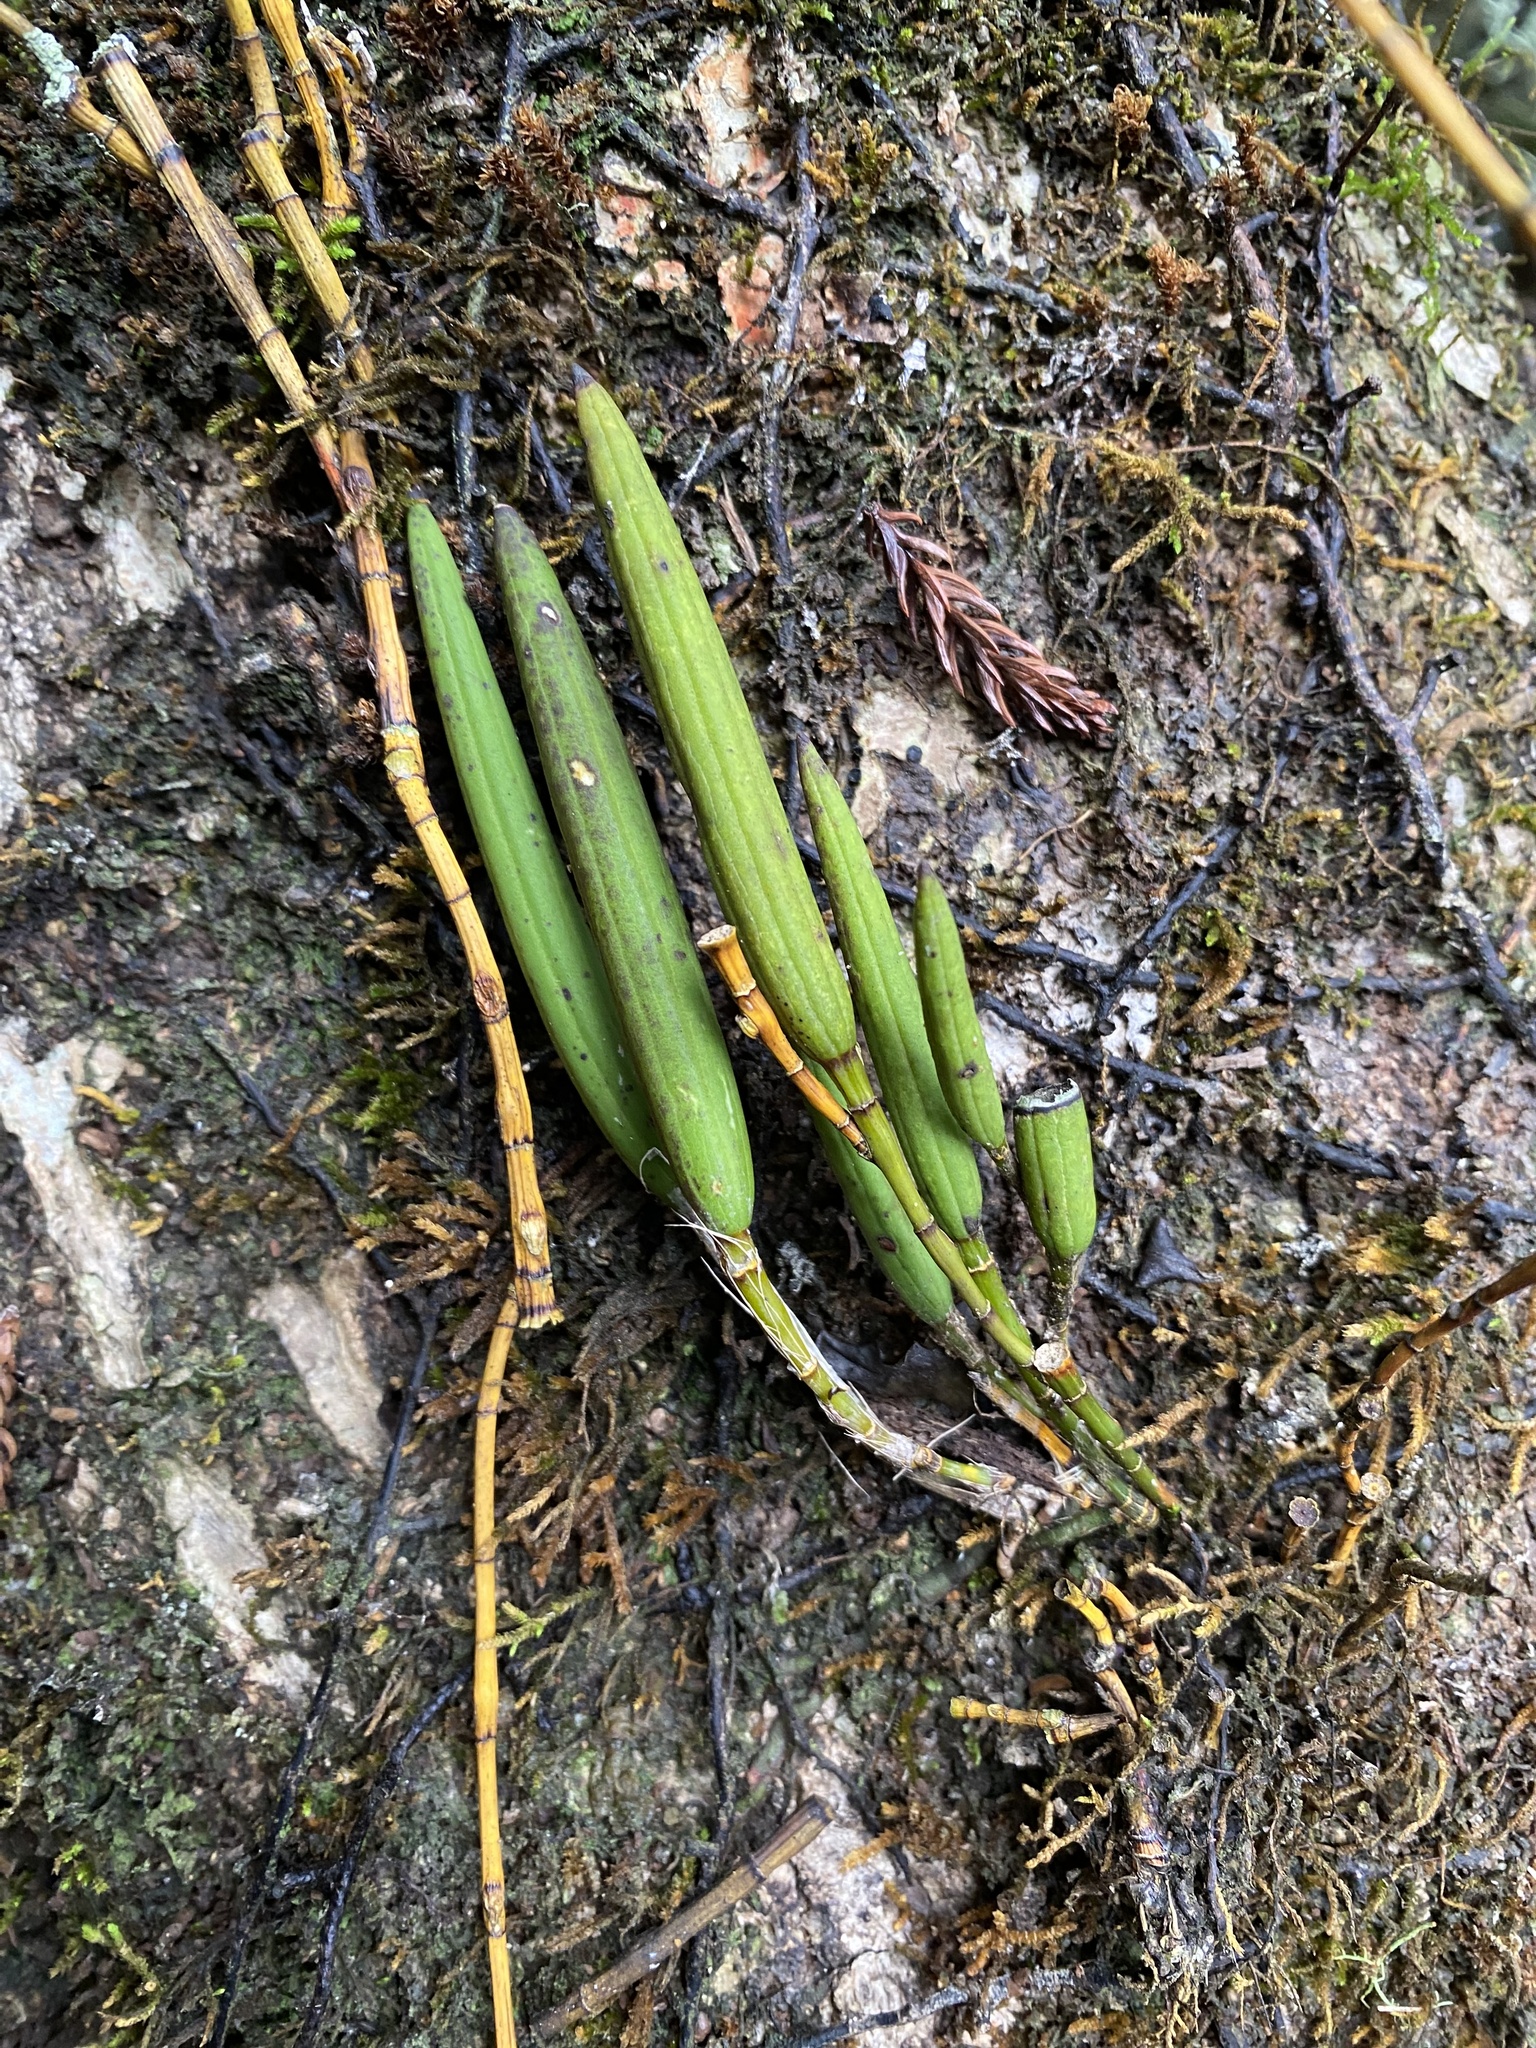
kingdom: Plantae
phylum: Tracheophyta
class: Liliopsida
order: Asparagales
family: Orchidaceae
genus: Dendrobium
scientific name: Dendrobium schoeninum
